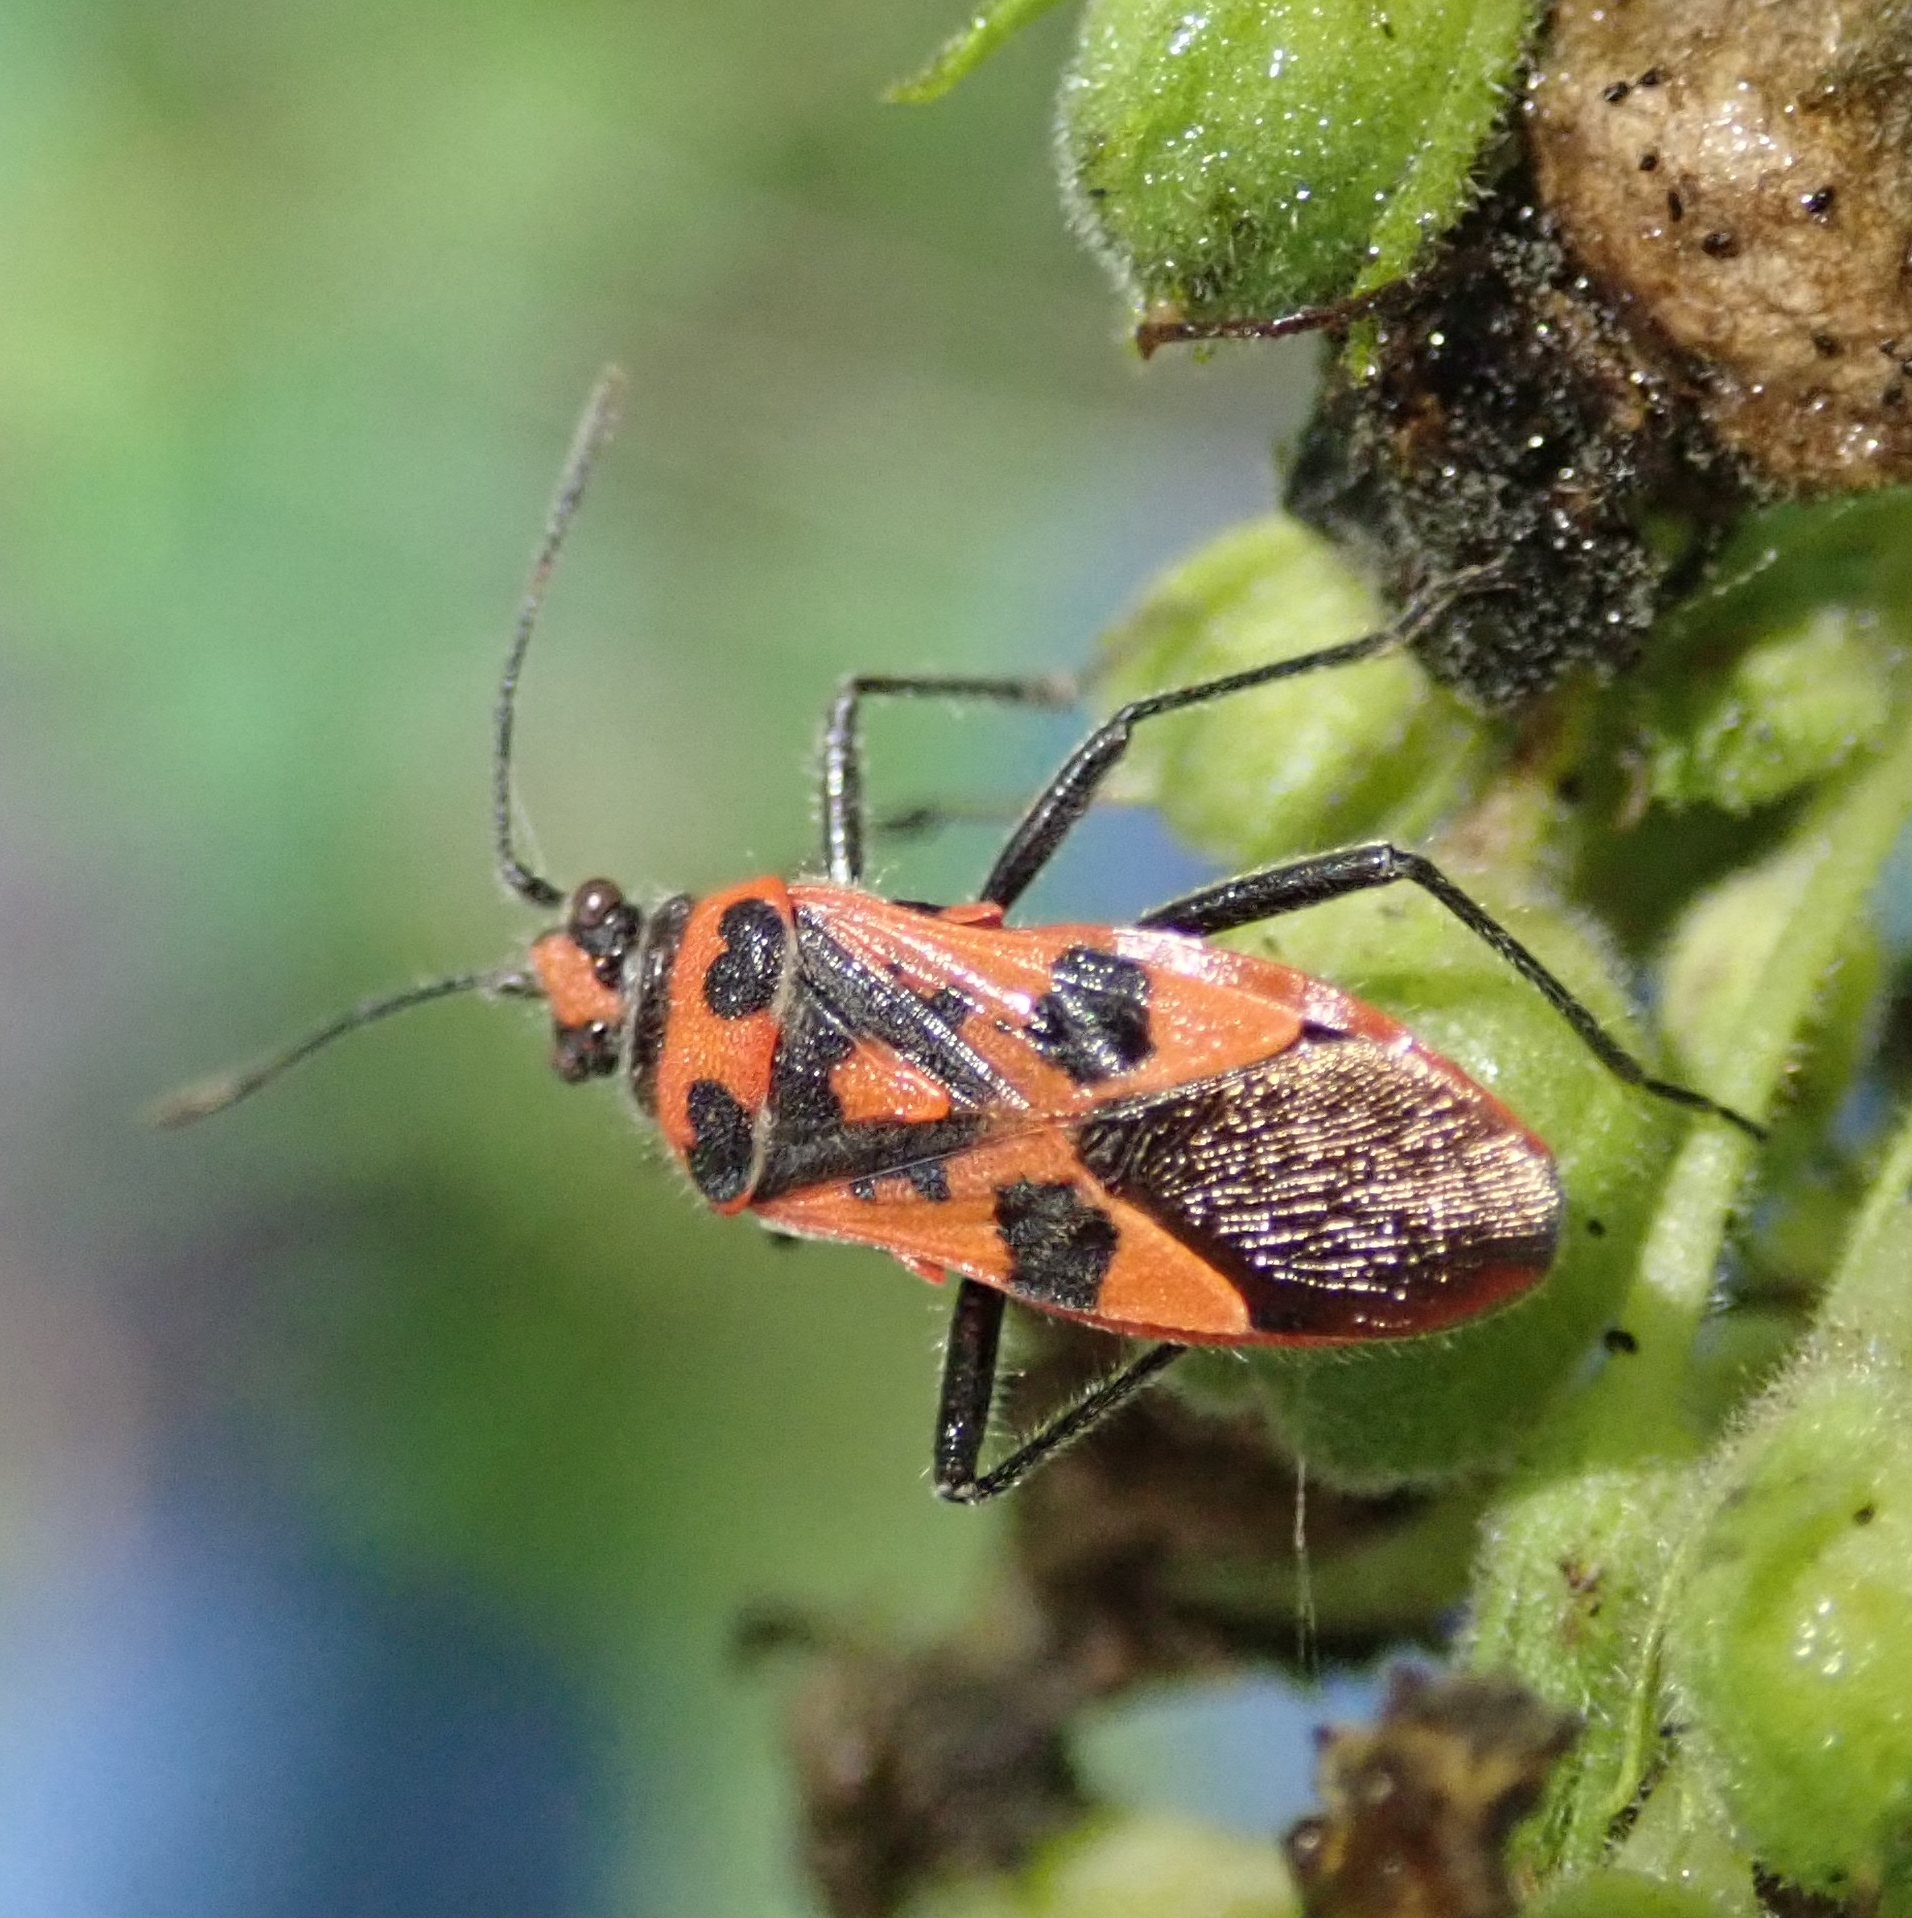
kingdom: Animalia
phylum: Arthropoda
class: Insecta
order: Hemiptera
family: Rhopalidae
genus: Corizus
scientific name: Corizus hyoscyami
